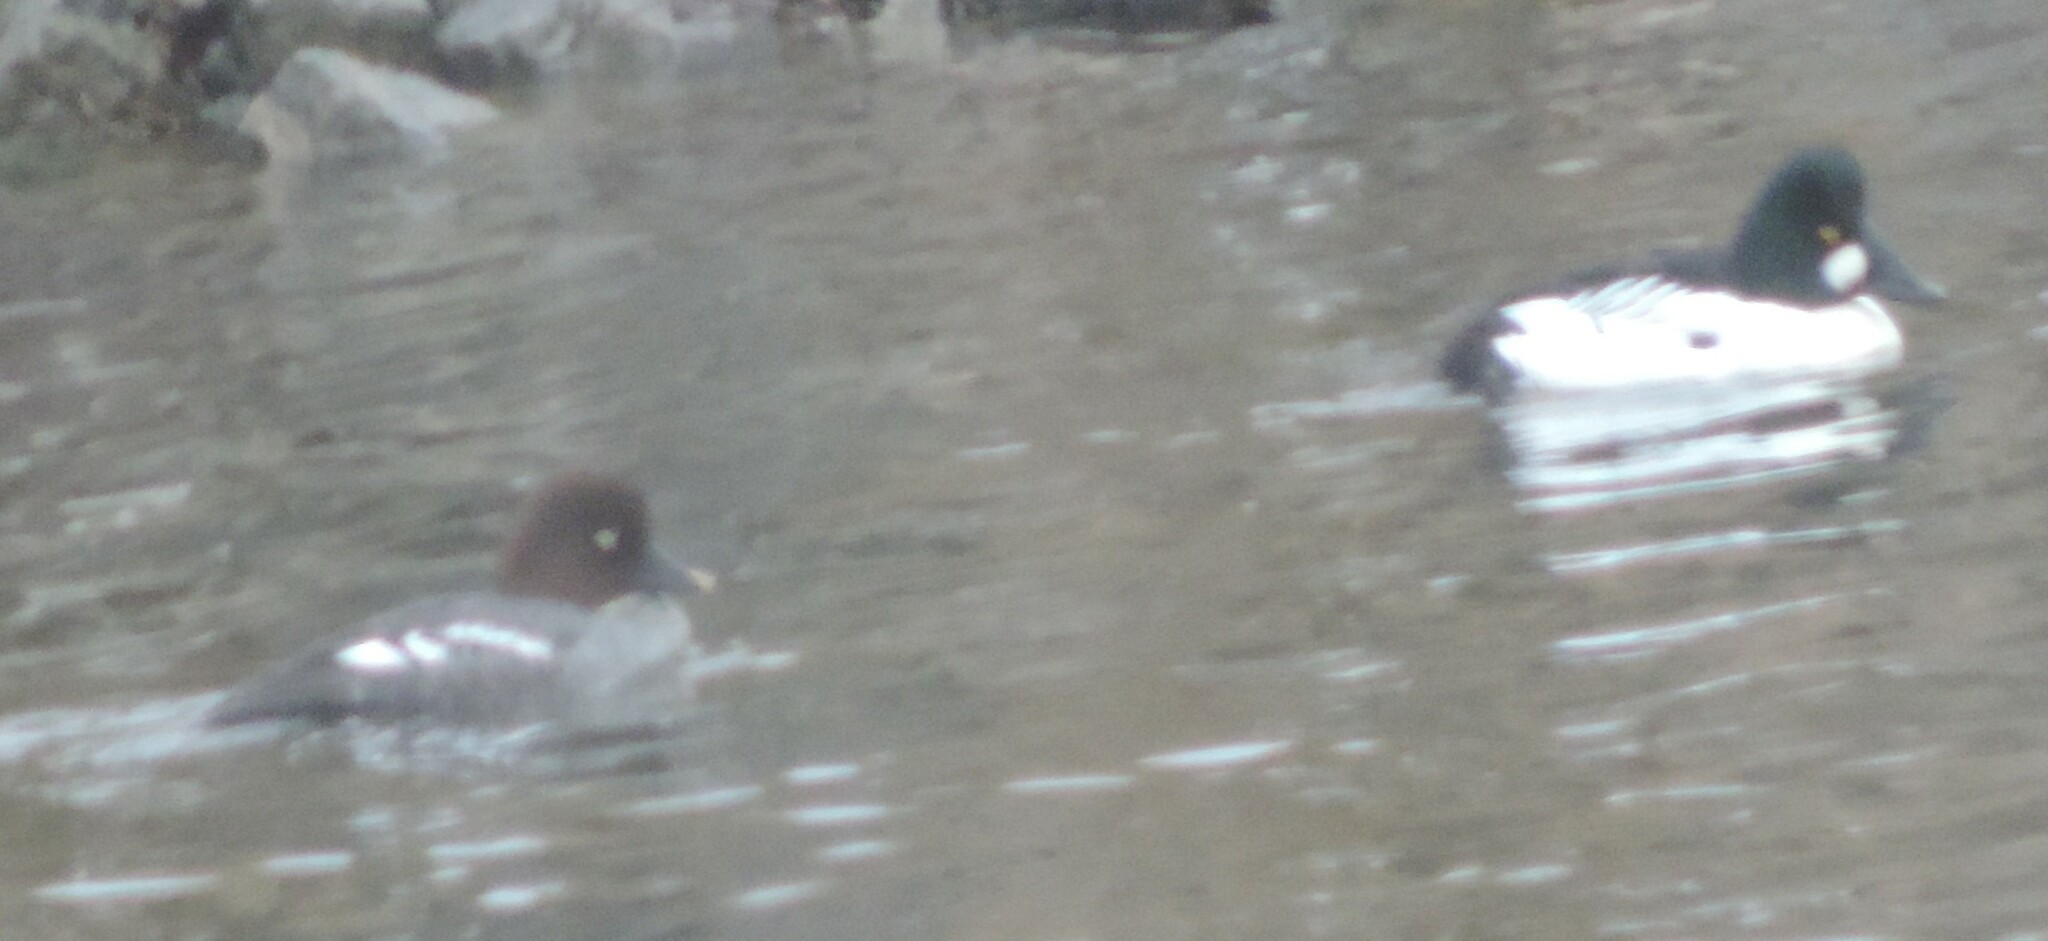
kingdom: Animalia
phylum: Chordata
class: Aves
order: Anseriformes
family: Anatidae
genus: Bucephala
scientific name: Bucephala clangula
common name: Common goldeneye
